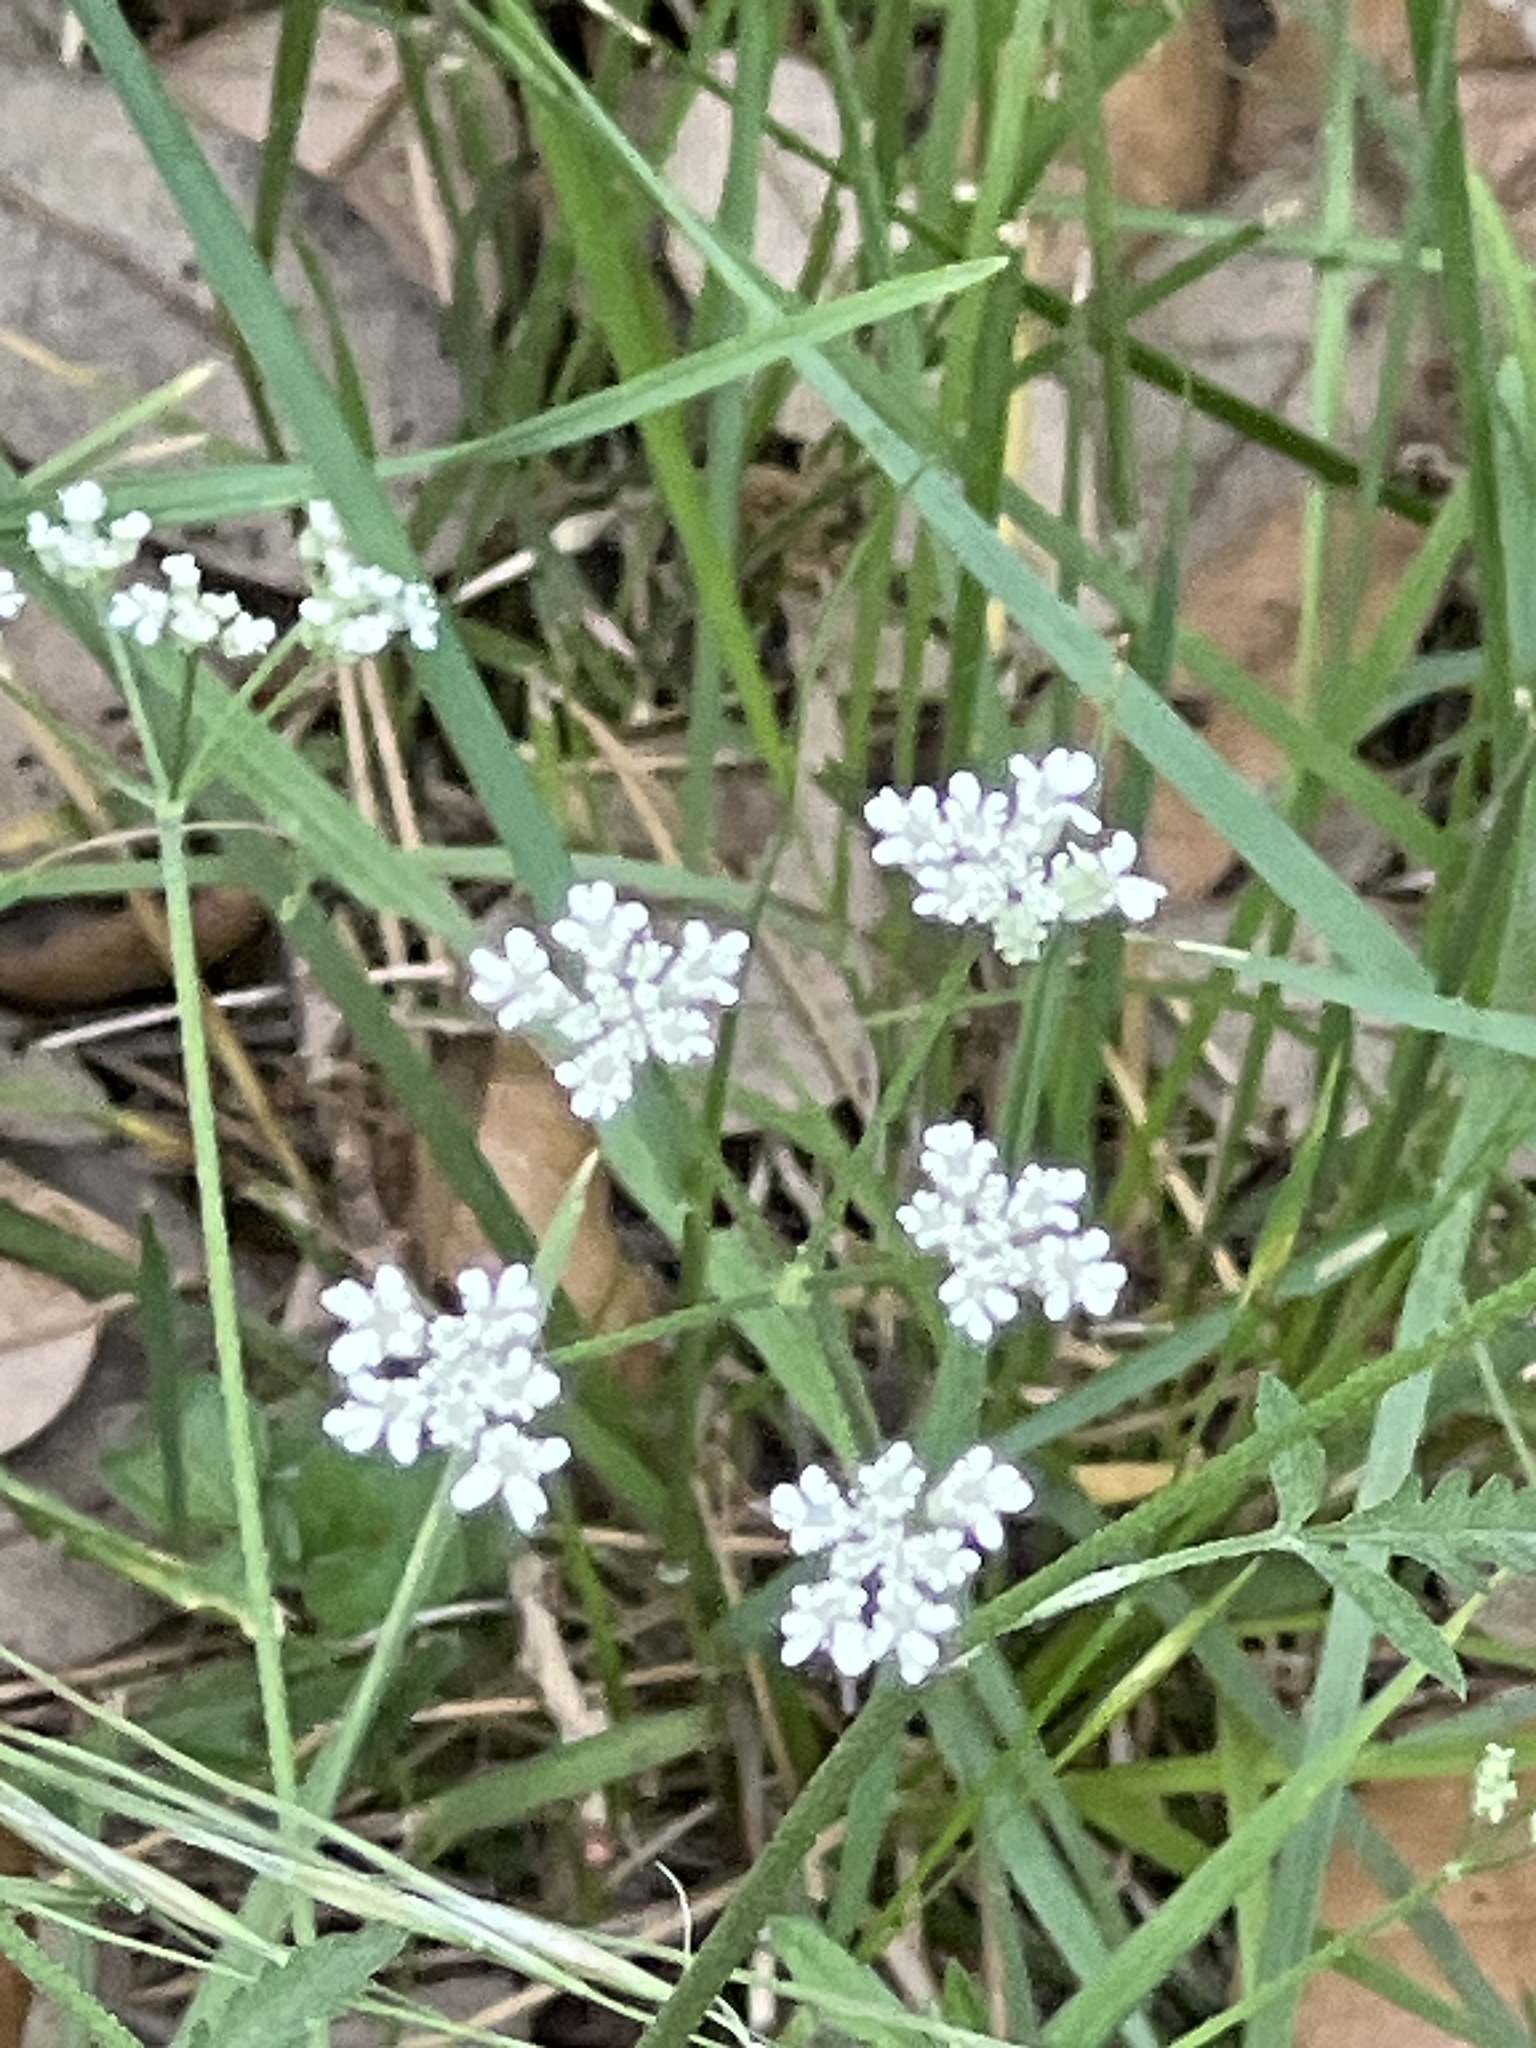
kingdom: Plantae
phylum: Tracheophyta
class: Magnoliopsida
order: Apiales
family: Apiaceae
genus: Torilis
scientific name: Torilis arvensis
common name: Spreading hedge-parsley
